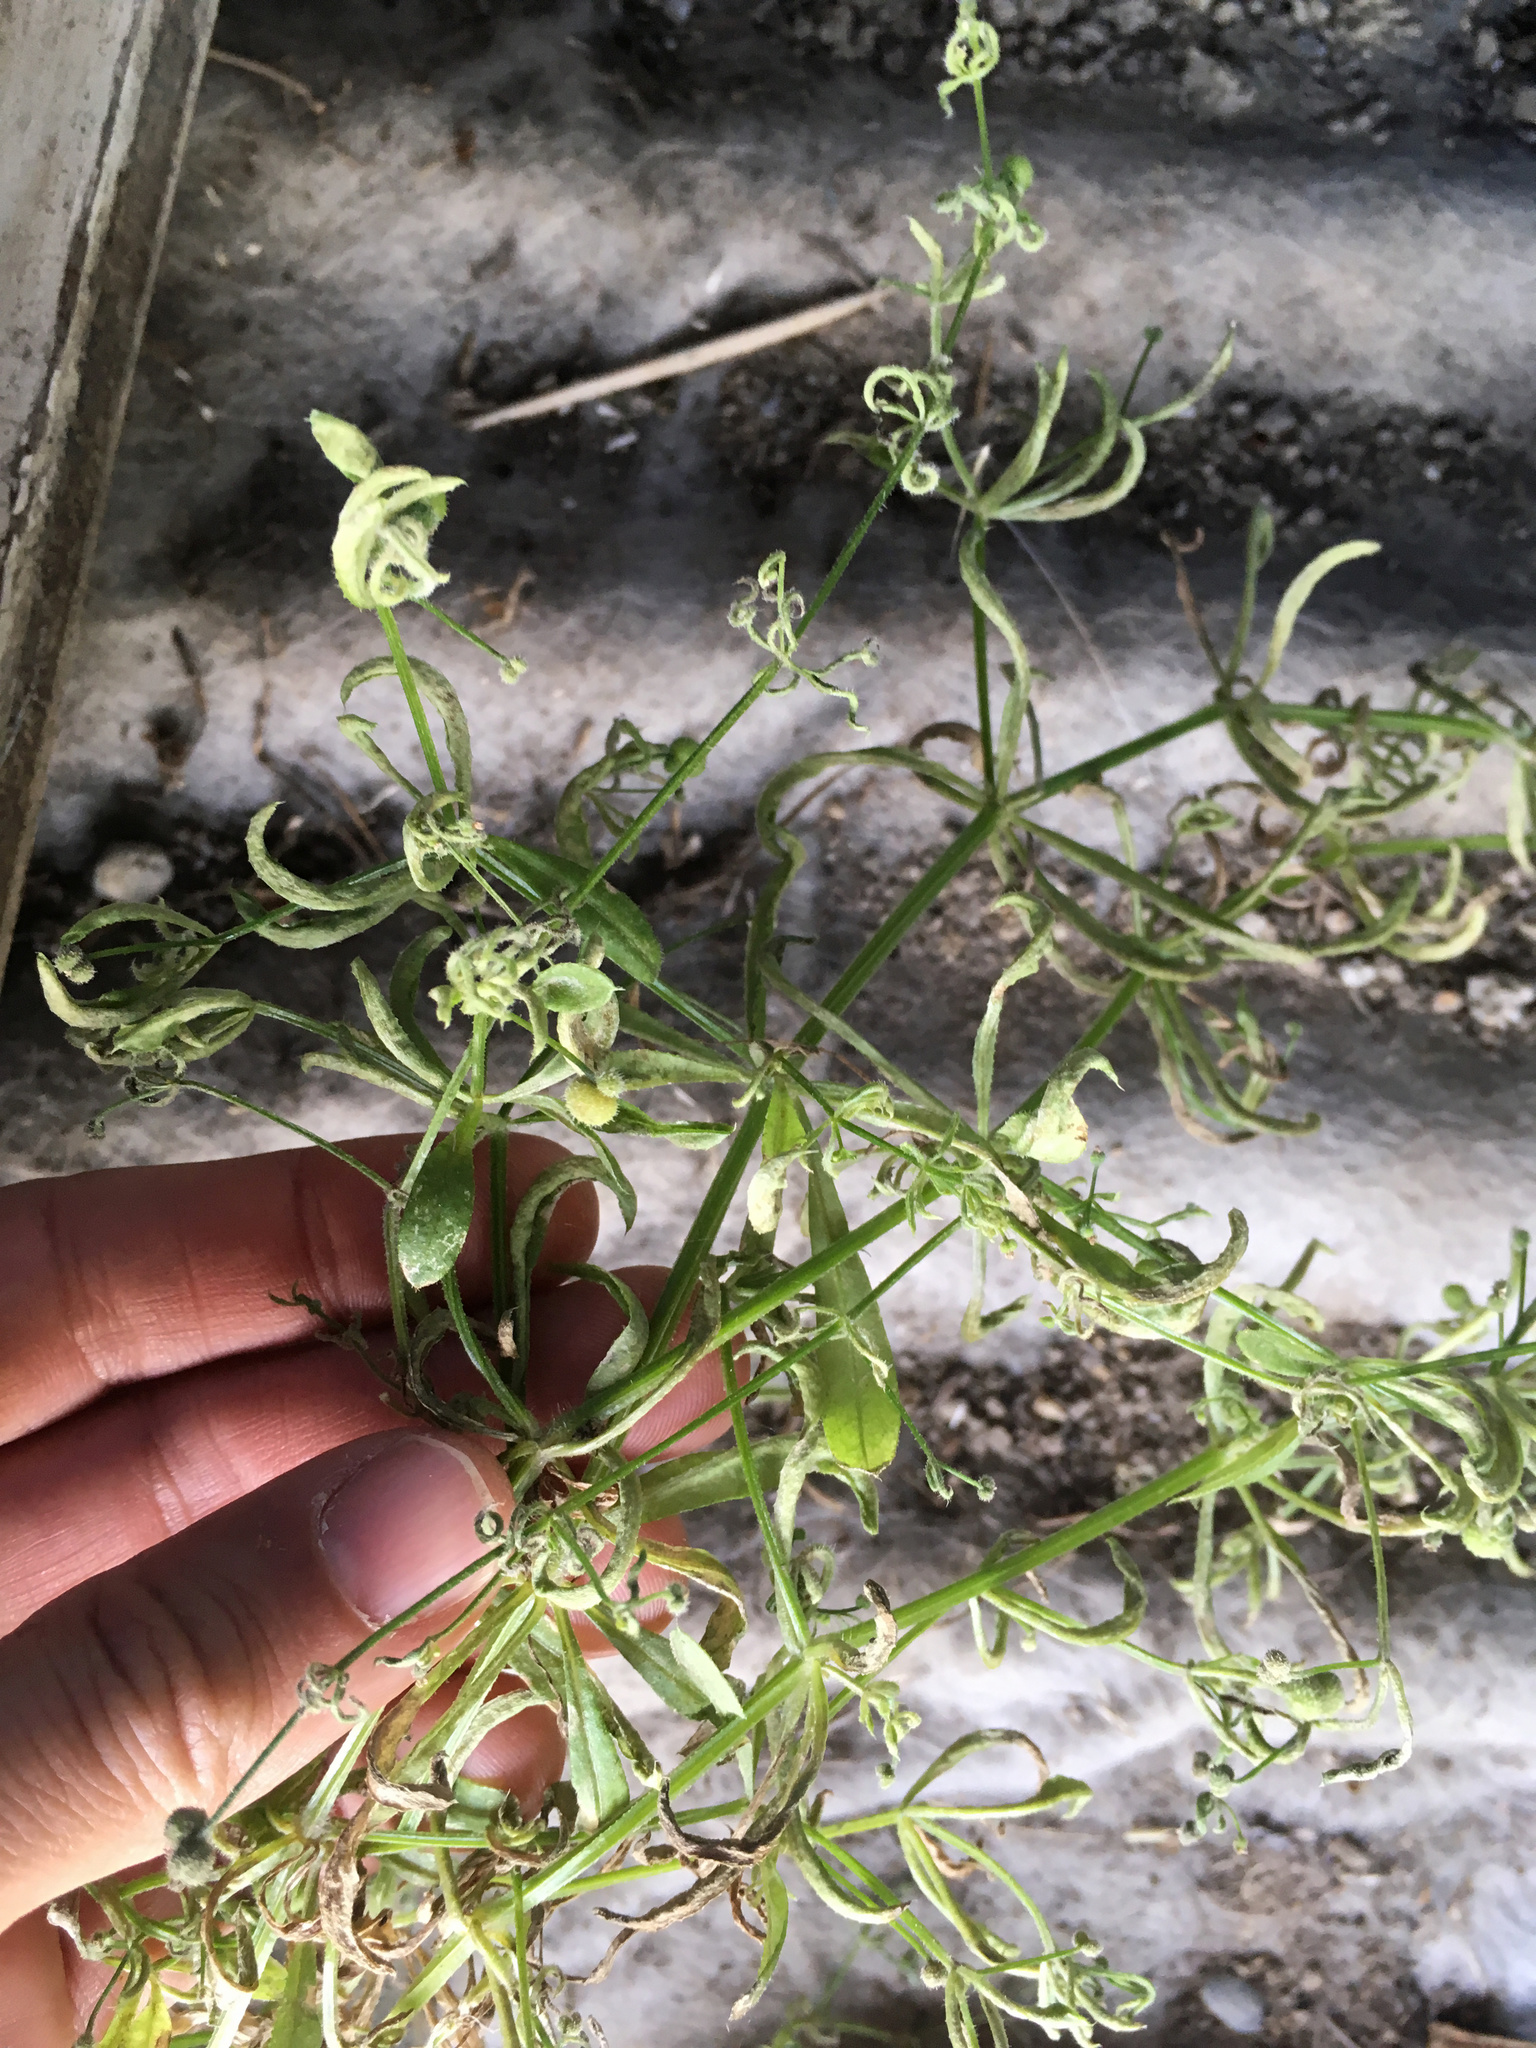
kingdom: Animalia
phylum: Arthropoda
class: Arachnida
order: Trombidiformes
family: Eriophyidae
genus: Cecidophyes
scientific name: Cecidophyes rouhollahi
